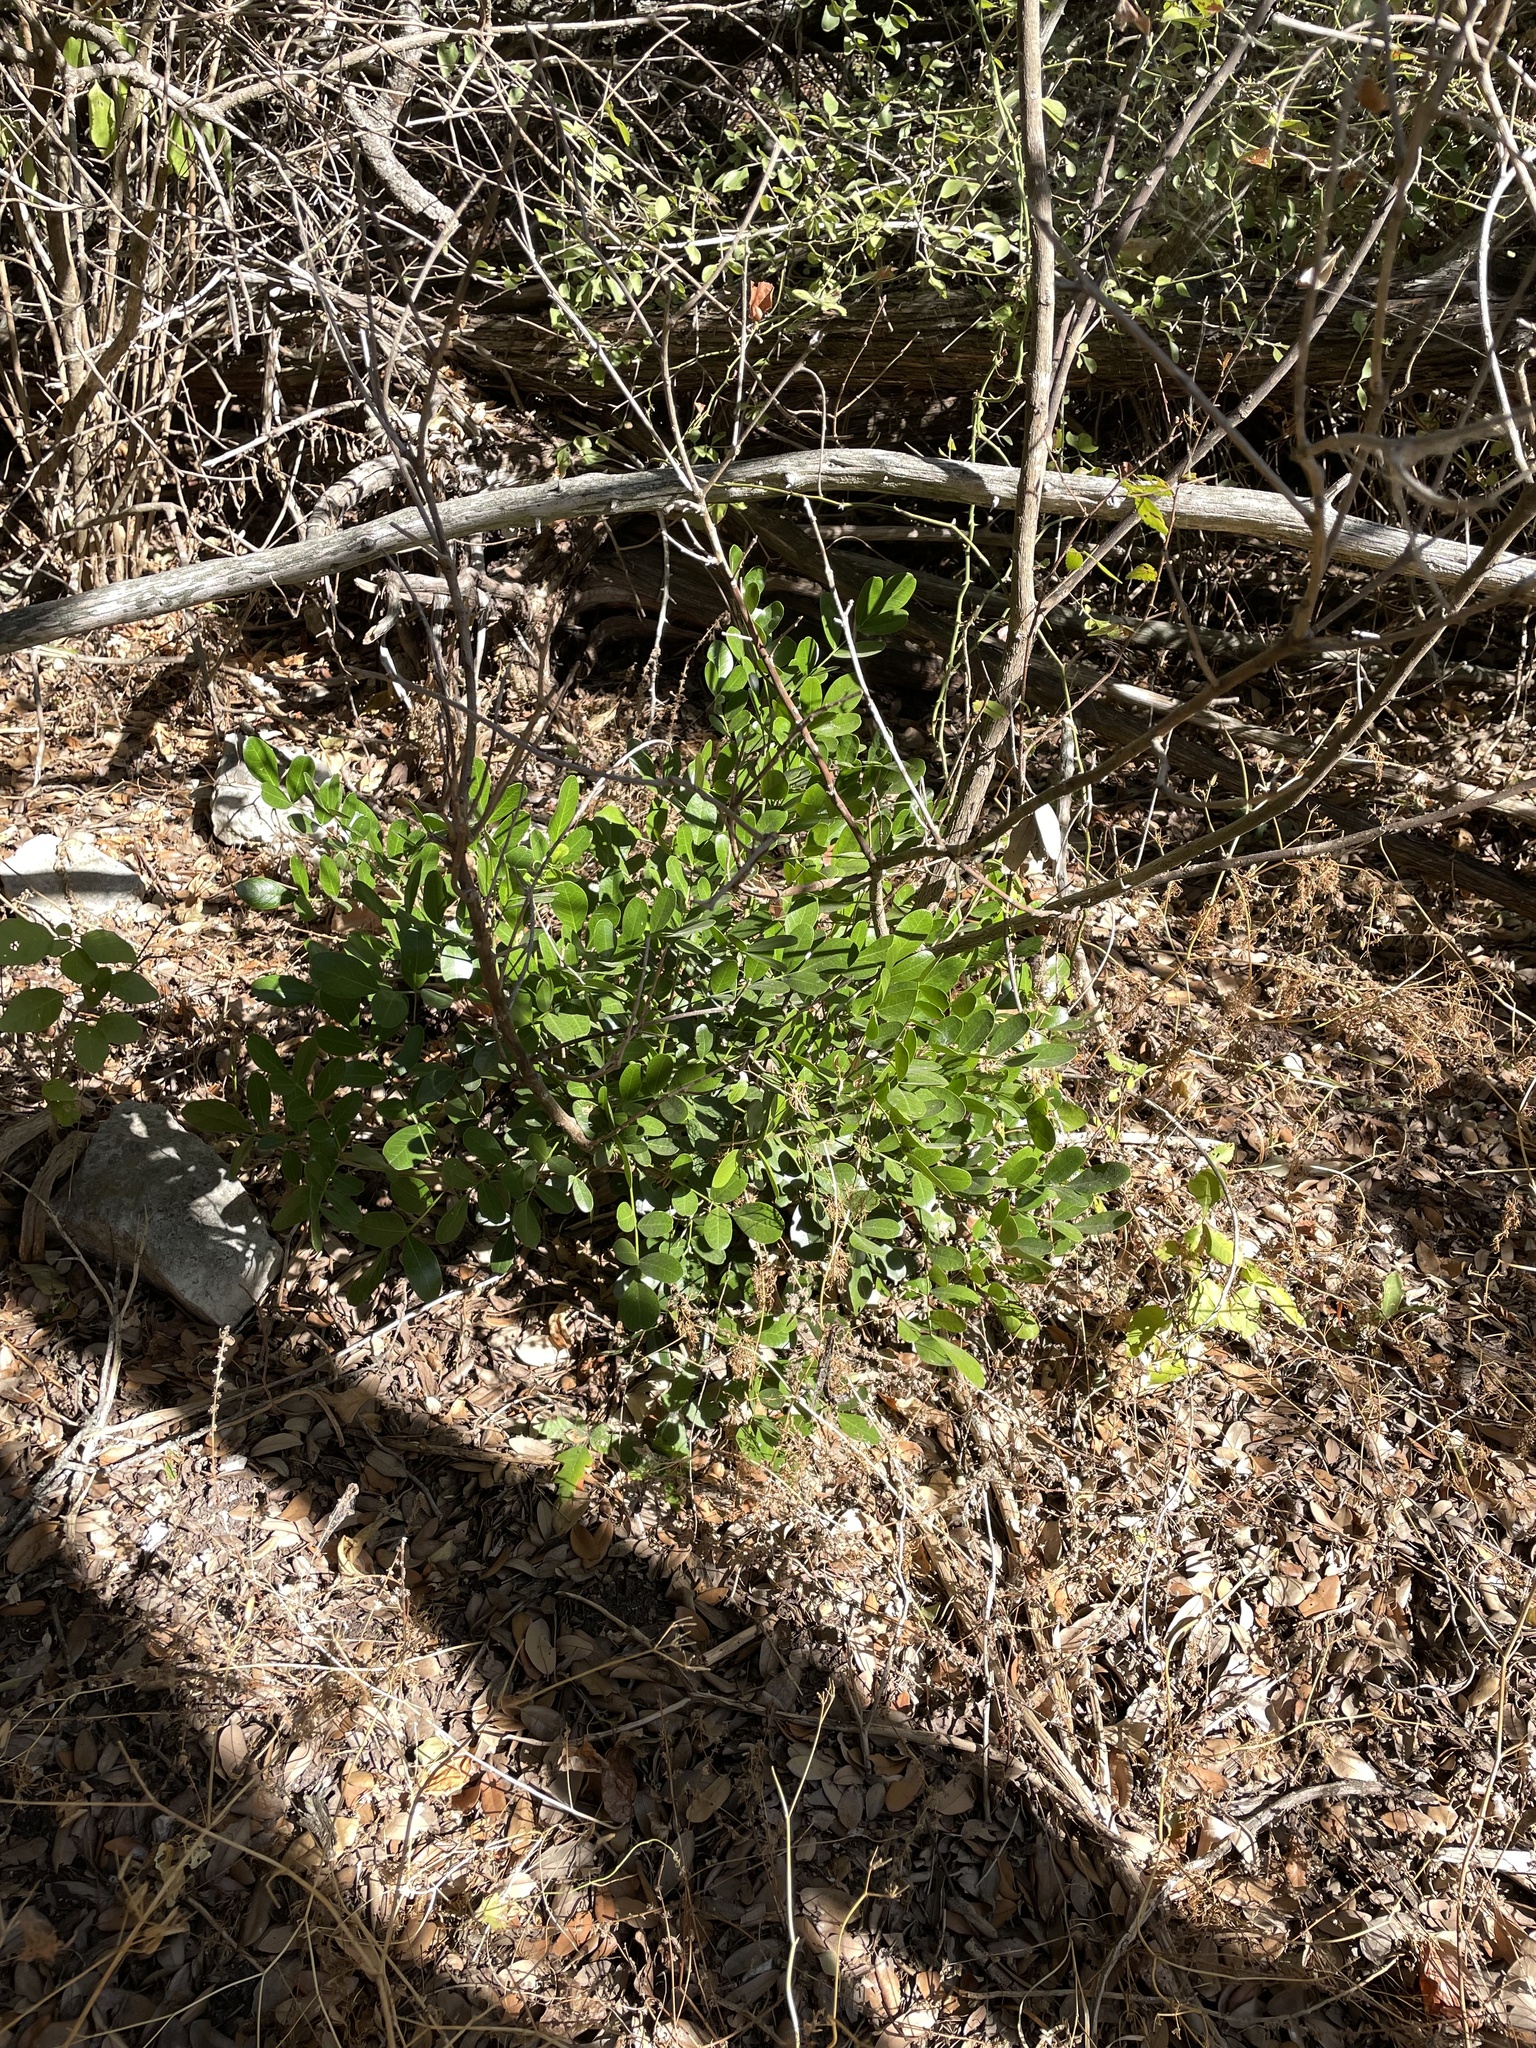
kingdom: Plantae
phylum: Tracheophyta
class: Magnoliopsida
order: Fabales
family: Fabaceae
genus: Dermatophyllum
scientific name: Dermatophyllum secundiflorum
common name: Texas-mountain-laurel
